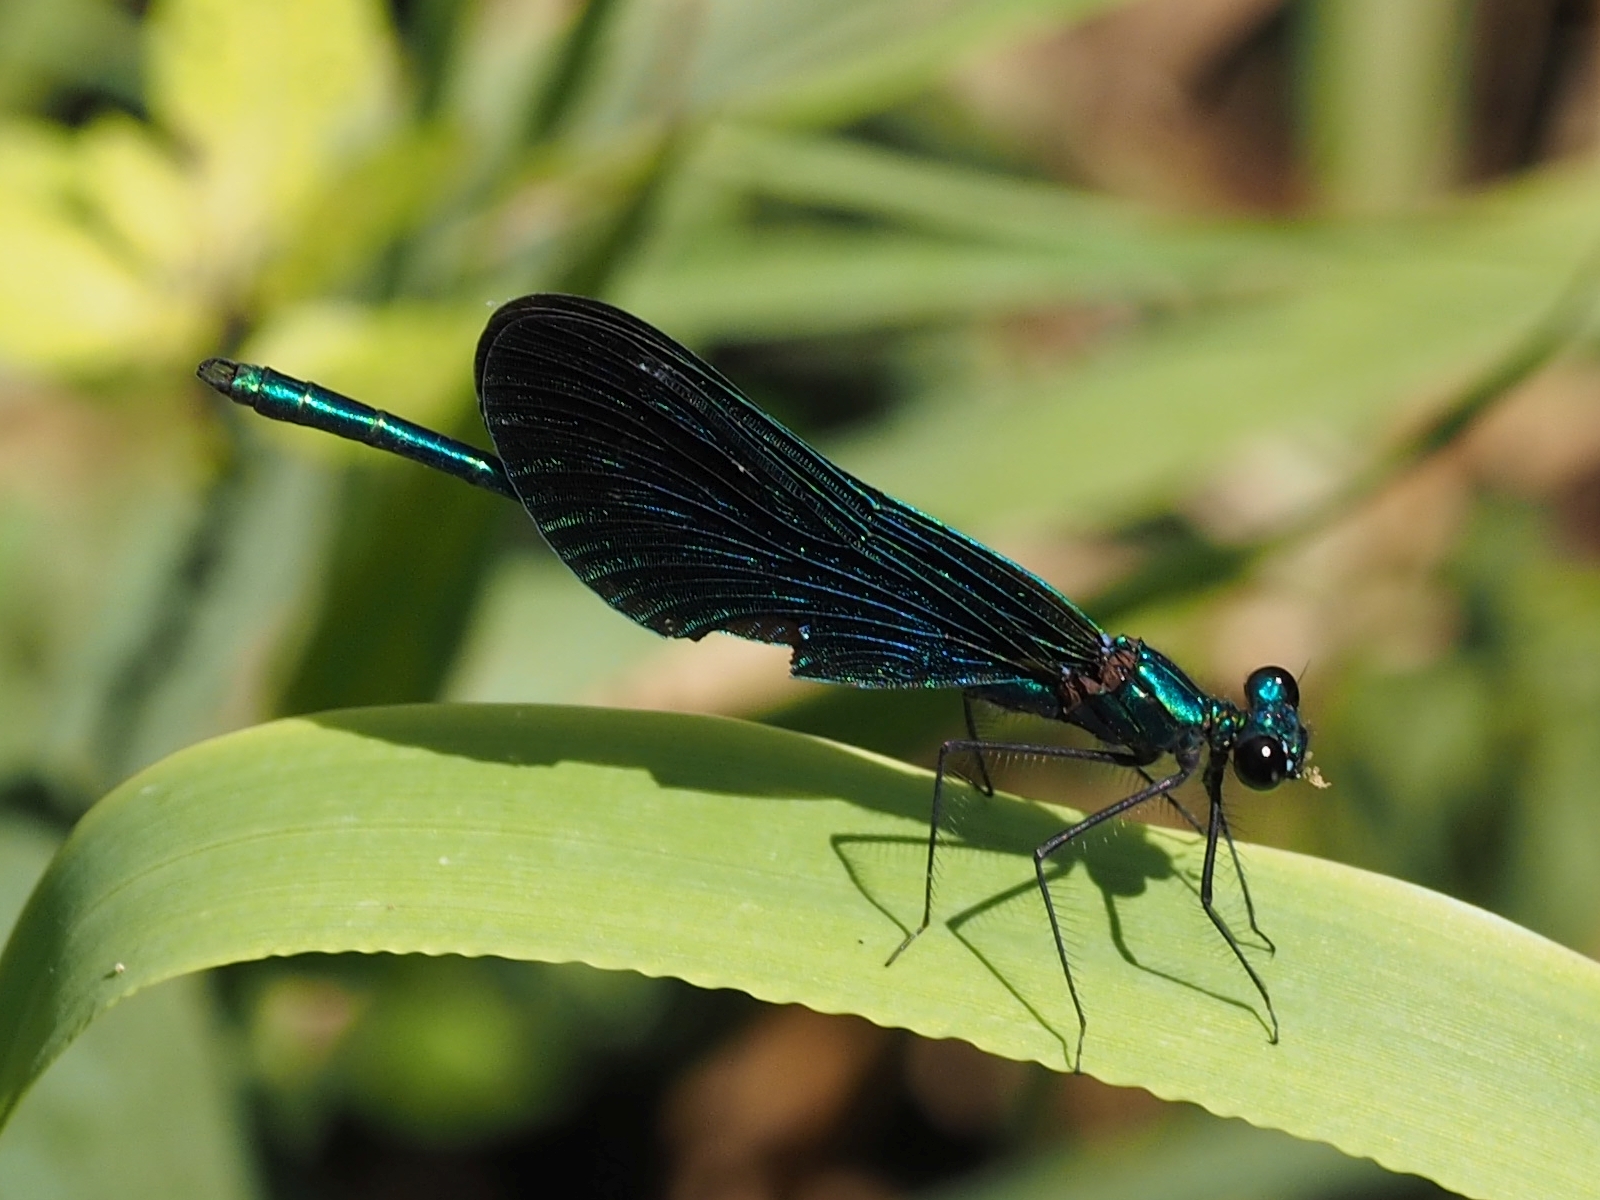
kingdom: Animalia
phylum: Arthropoda
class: Insecta
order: Odonata
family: Calopterygidae
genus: Calopteryx
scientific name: Calopteryx virgo
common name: Beautiful demoiselle
